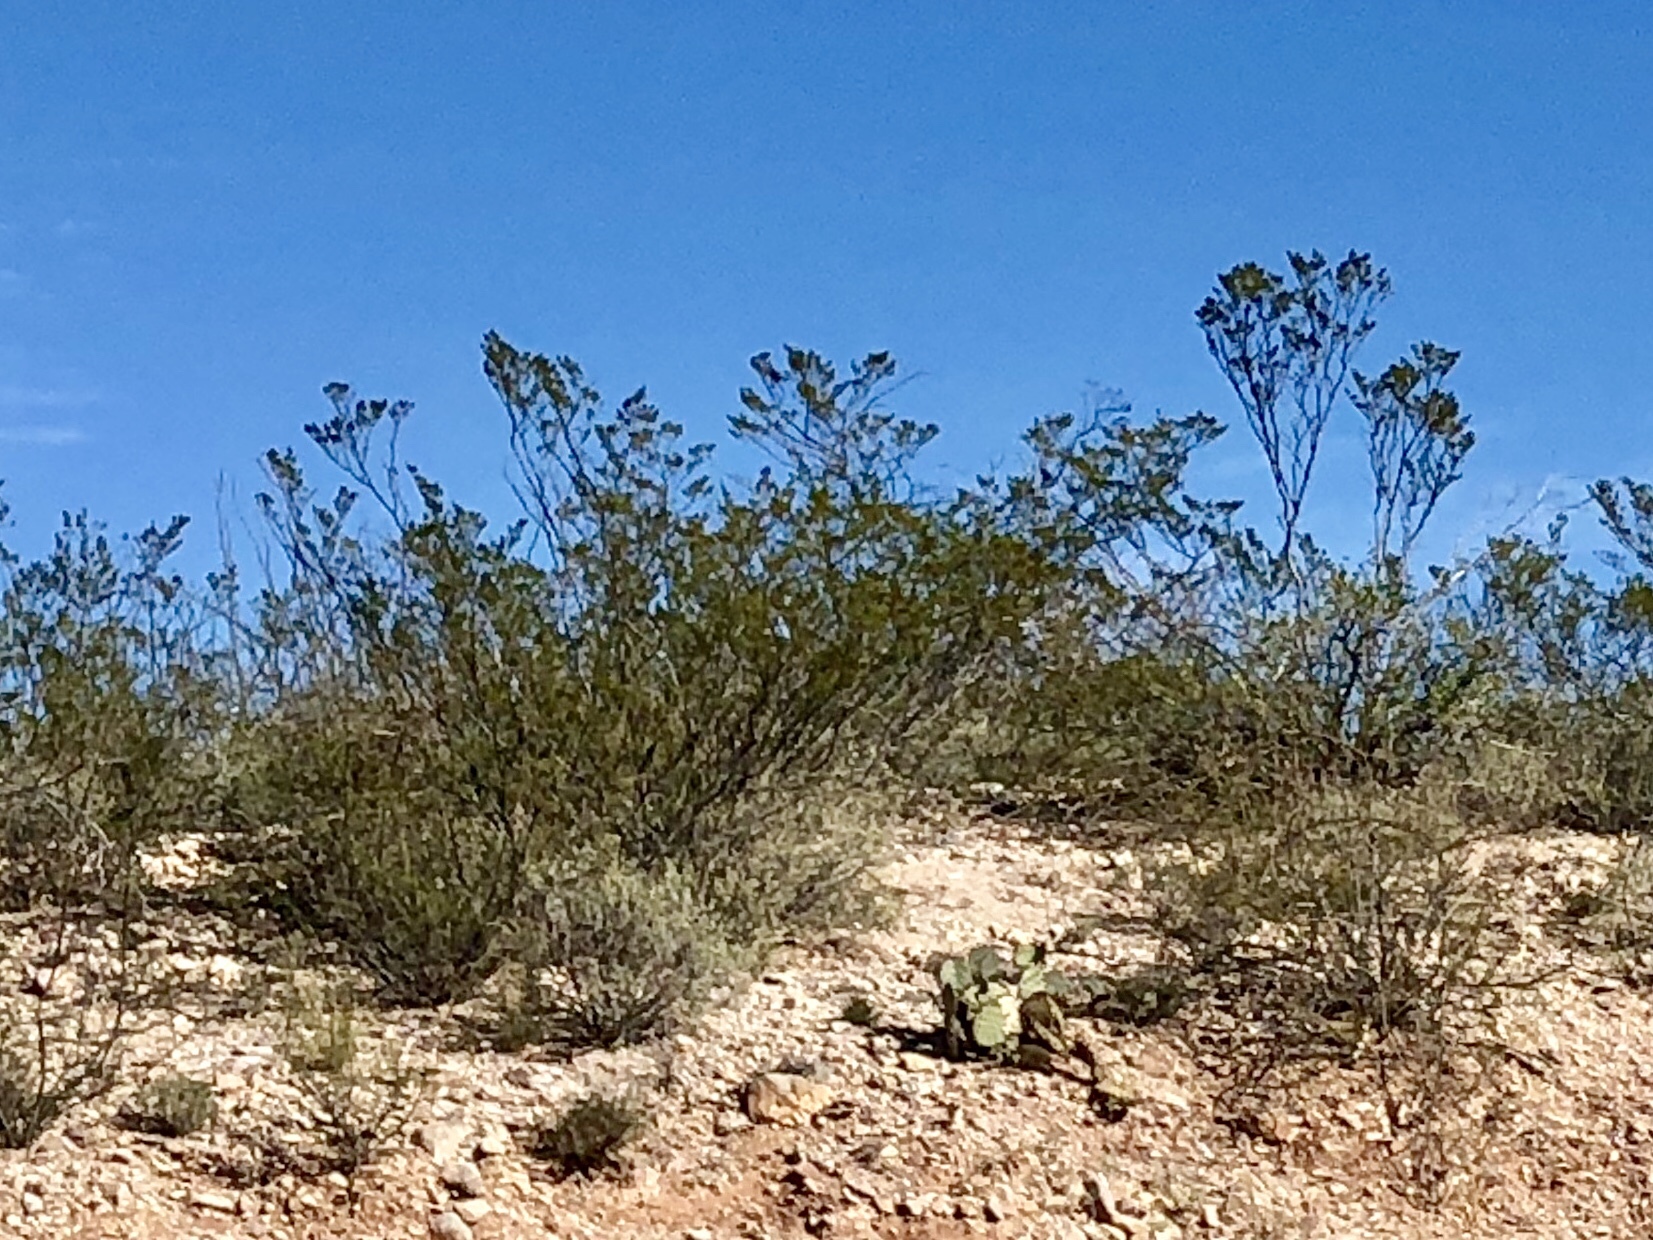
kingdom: Plantae
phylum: Tracheophyta
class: Magnoliopsida
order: Zygophyllales
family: Zygophyllaceae
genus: Larrea
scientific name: Larrea tridentata
